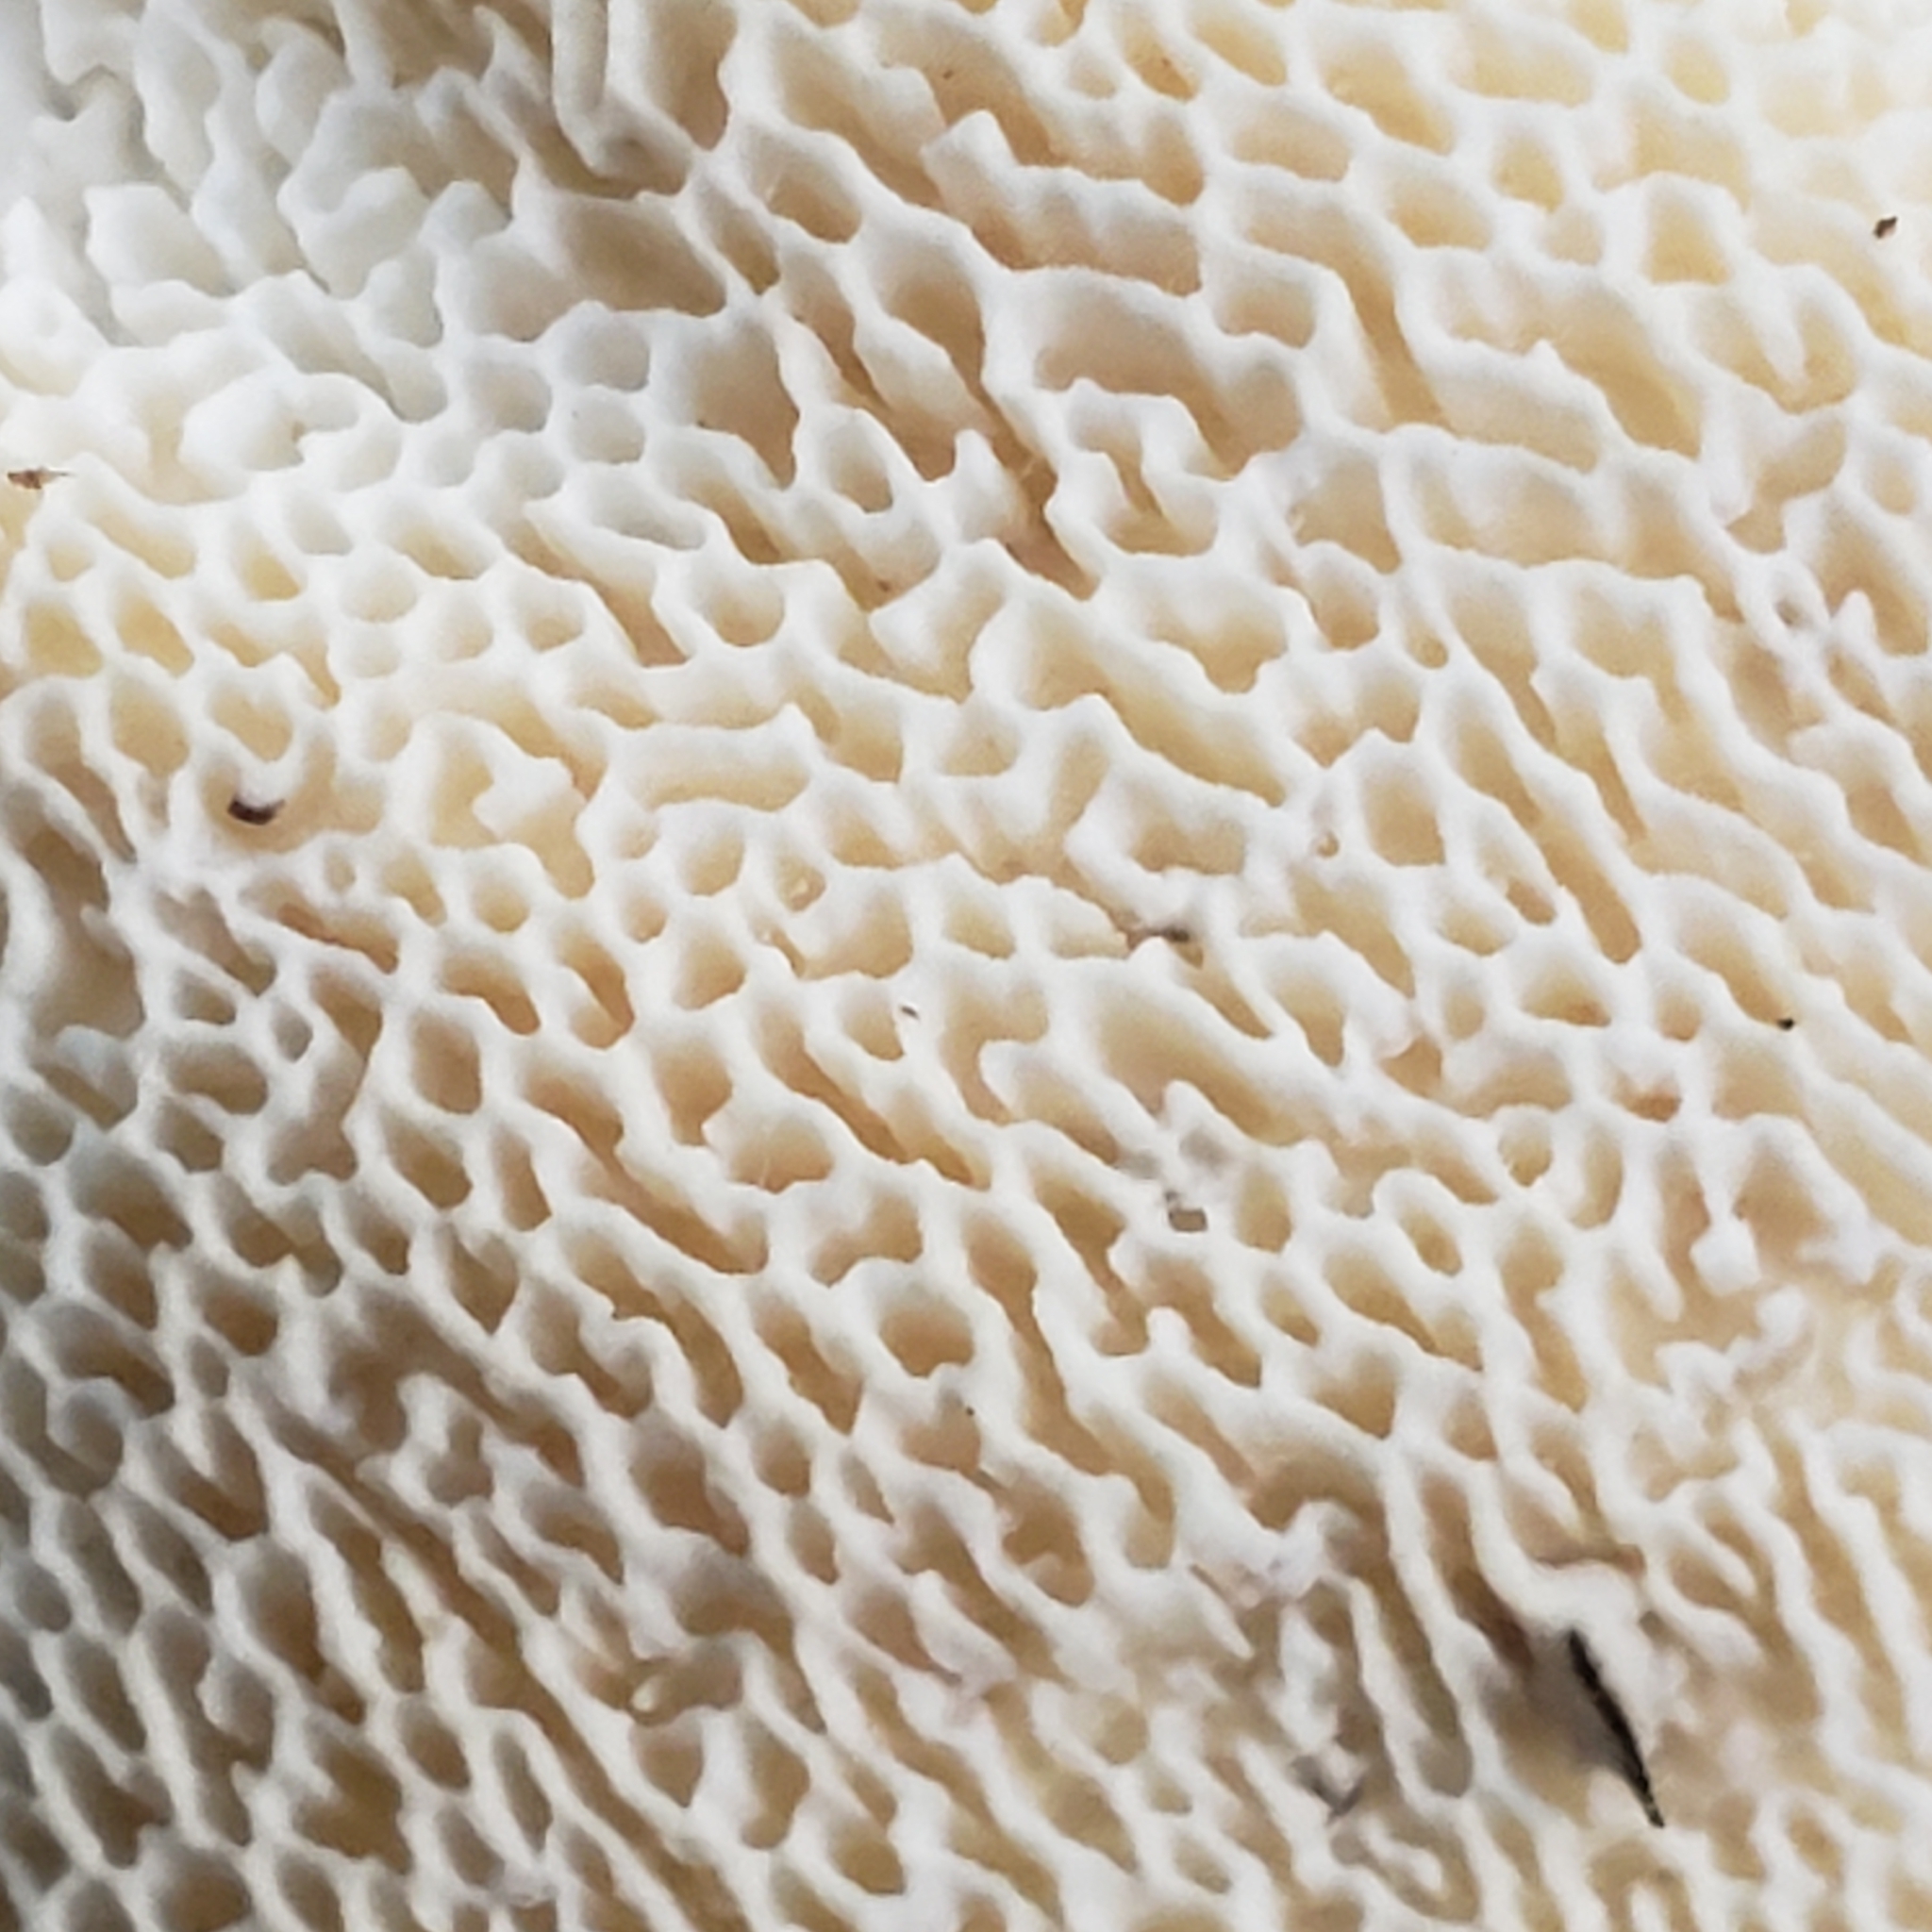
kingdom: Fungi
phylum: Basidiomycota
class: Agaricomycetes
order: Russulales
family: Bondarzewiaceae
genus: Bondarzewia
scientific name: Bondarzewia berkeleyi
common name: Berkeley's polypore
